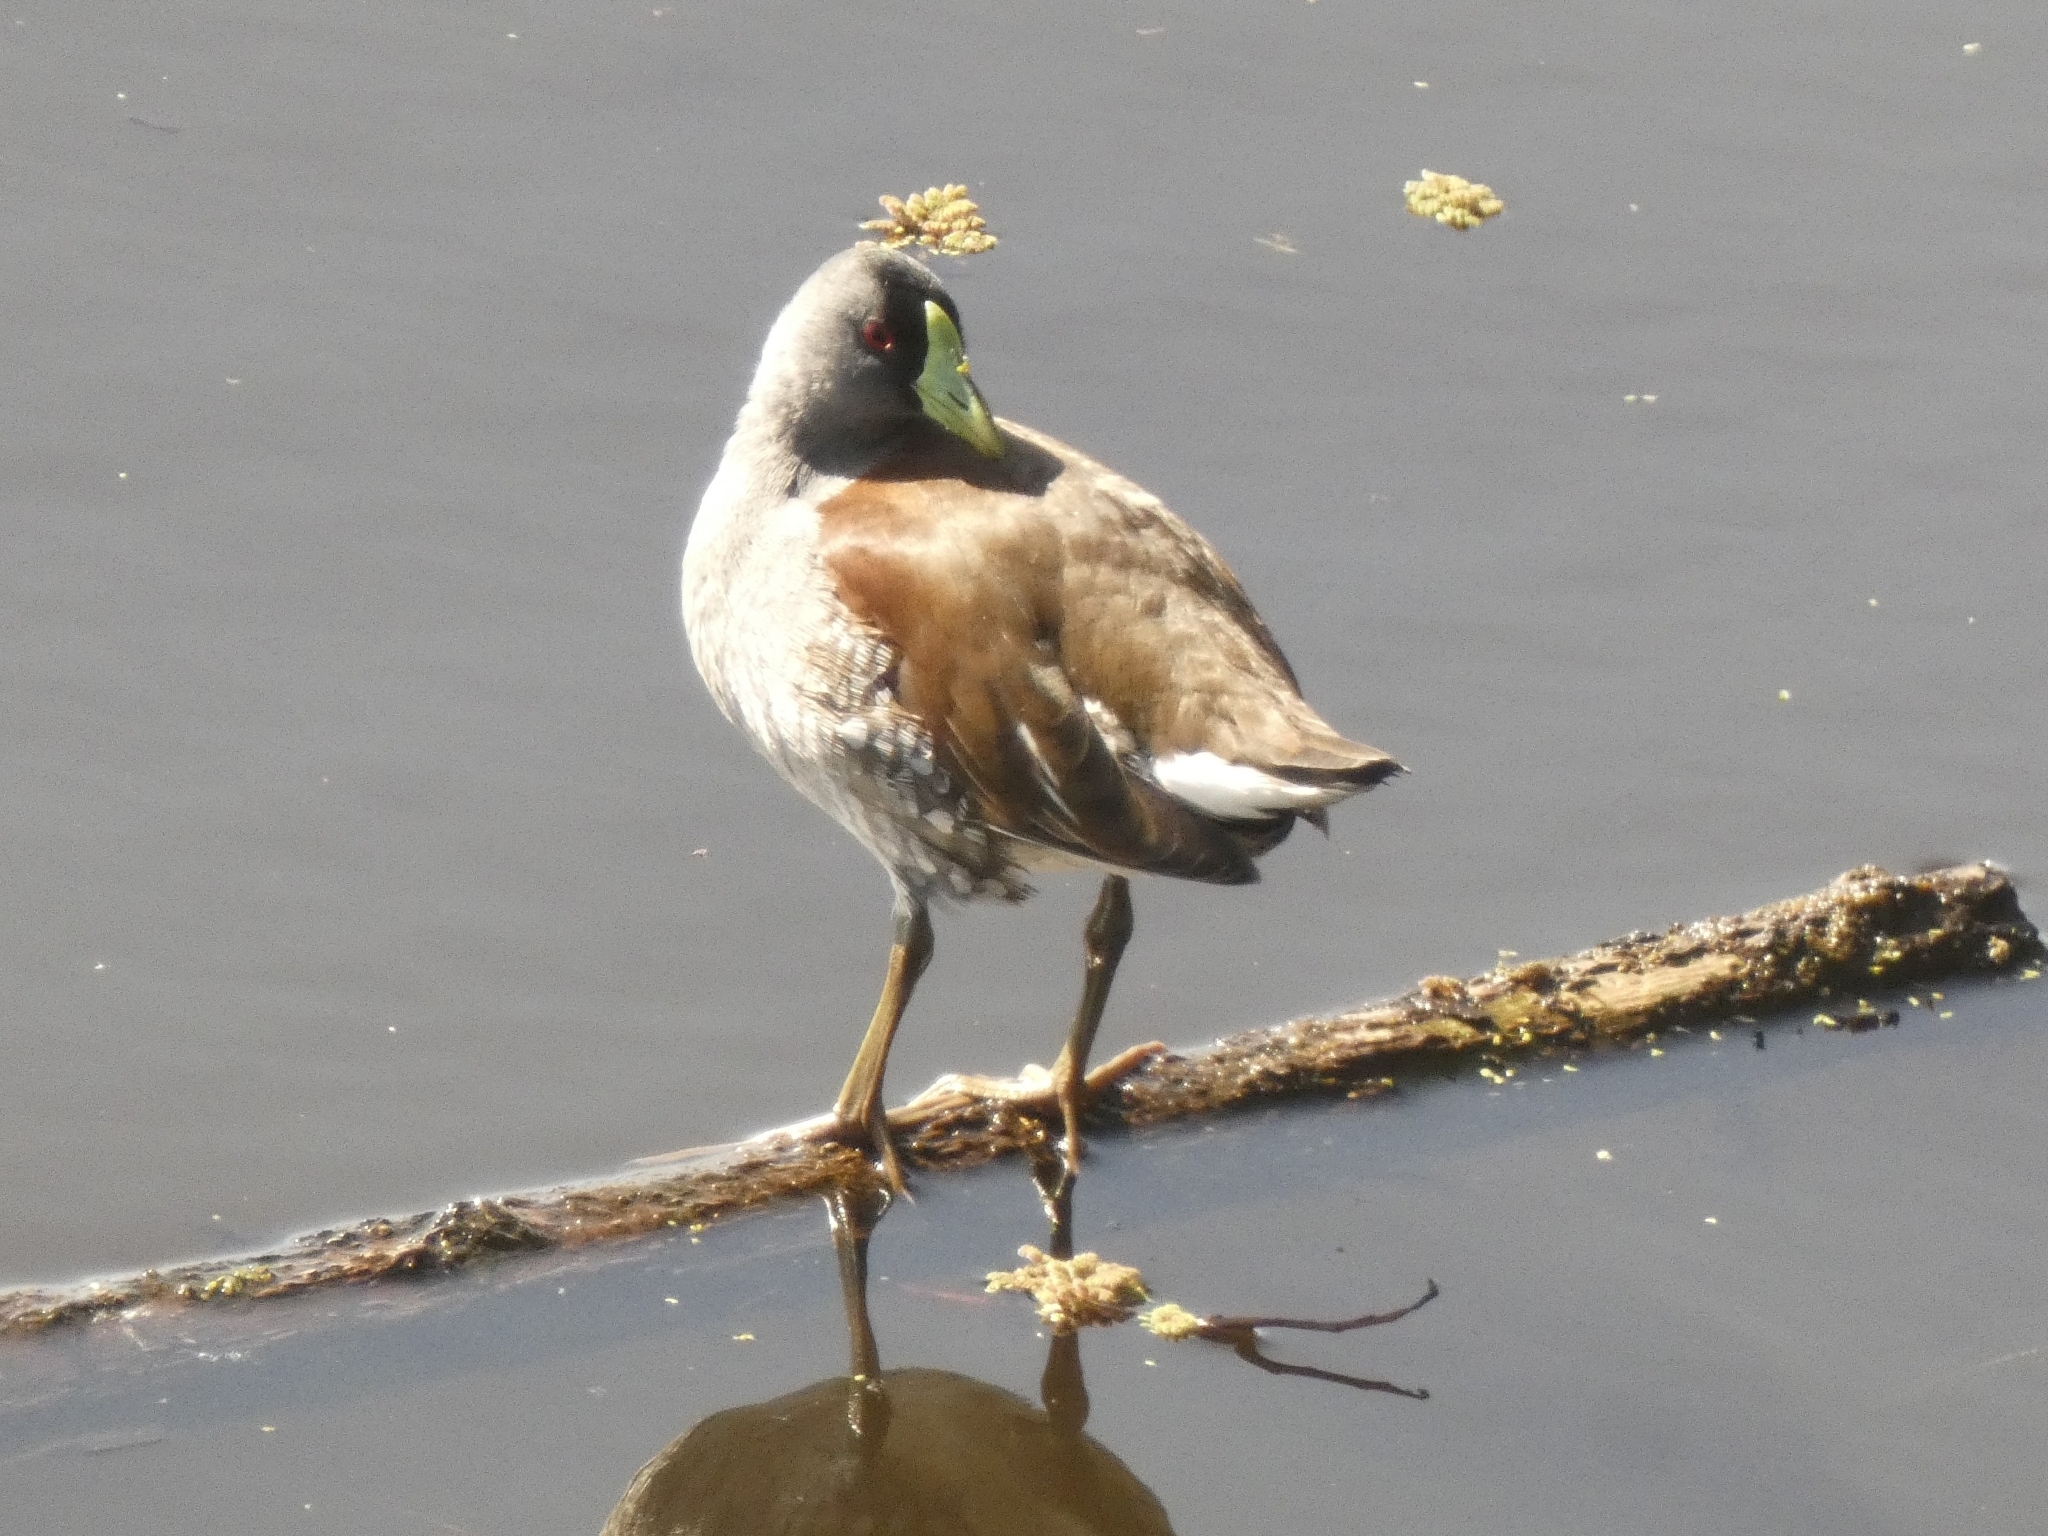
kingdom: Animalia
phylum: Chordata
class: Aves
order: Gruiformes
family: Rallidae
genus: Gallinula
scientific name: Gallinula melanops
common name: Spot-flanked gallinule
